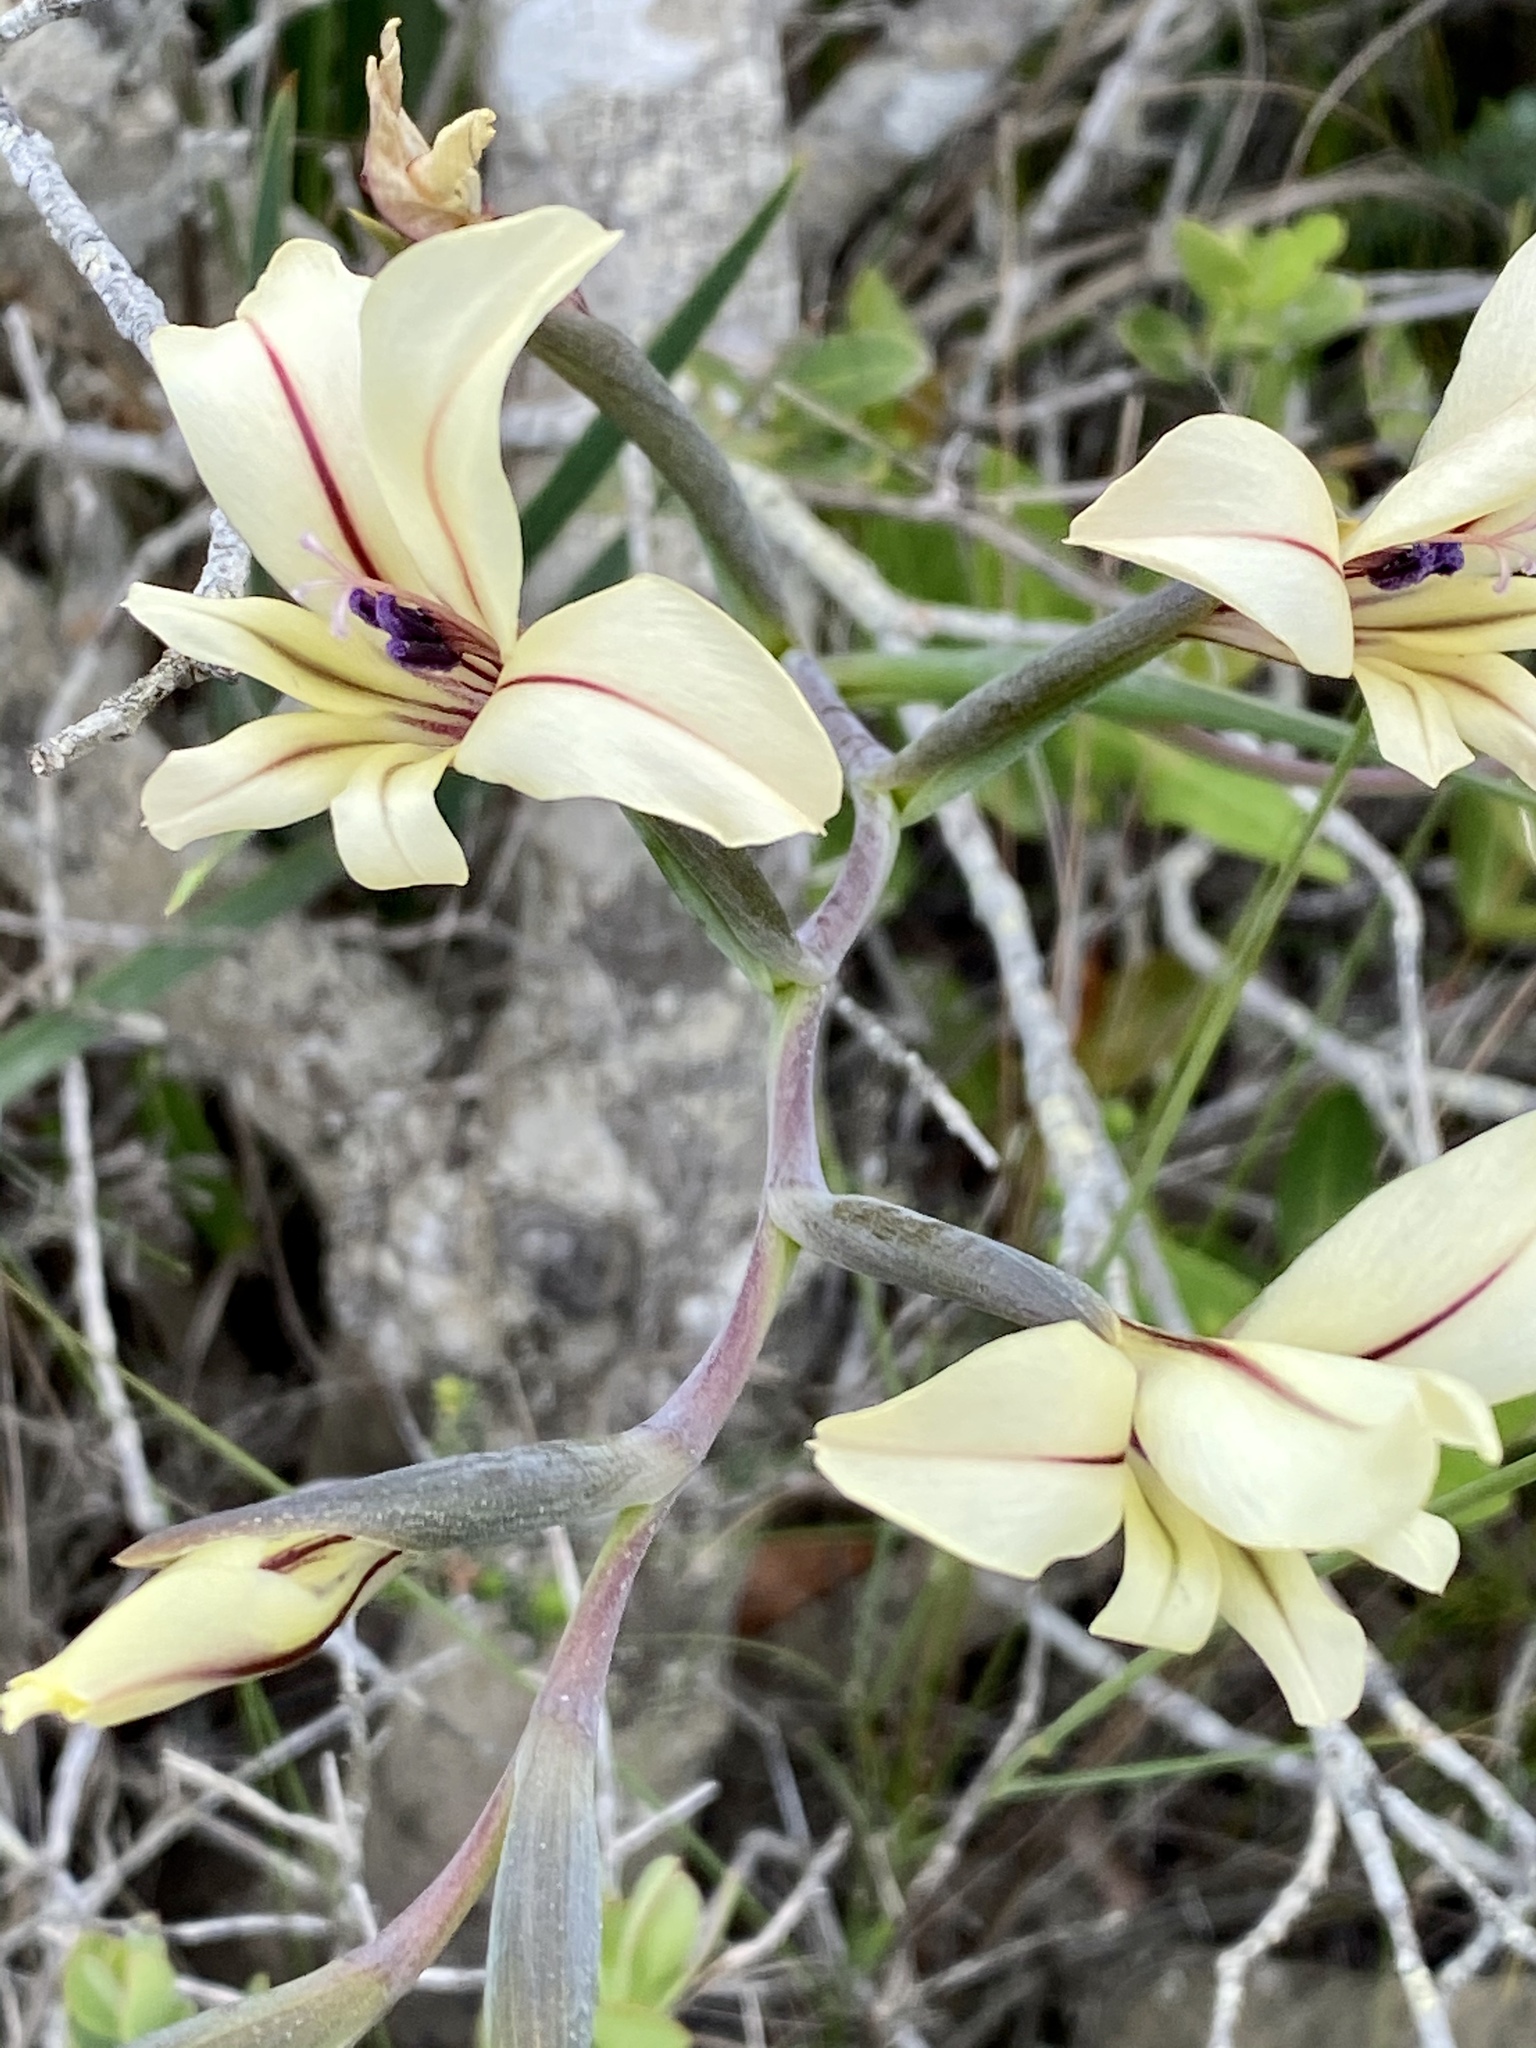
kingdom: Plantae
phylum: Tracheophyta
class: Liliopsida
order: Asparagales
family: Iridaceae
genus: Gladiolus
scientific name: Gladiolus floribundus
